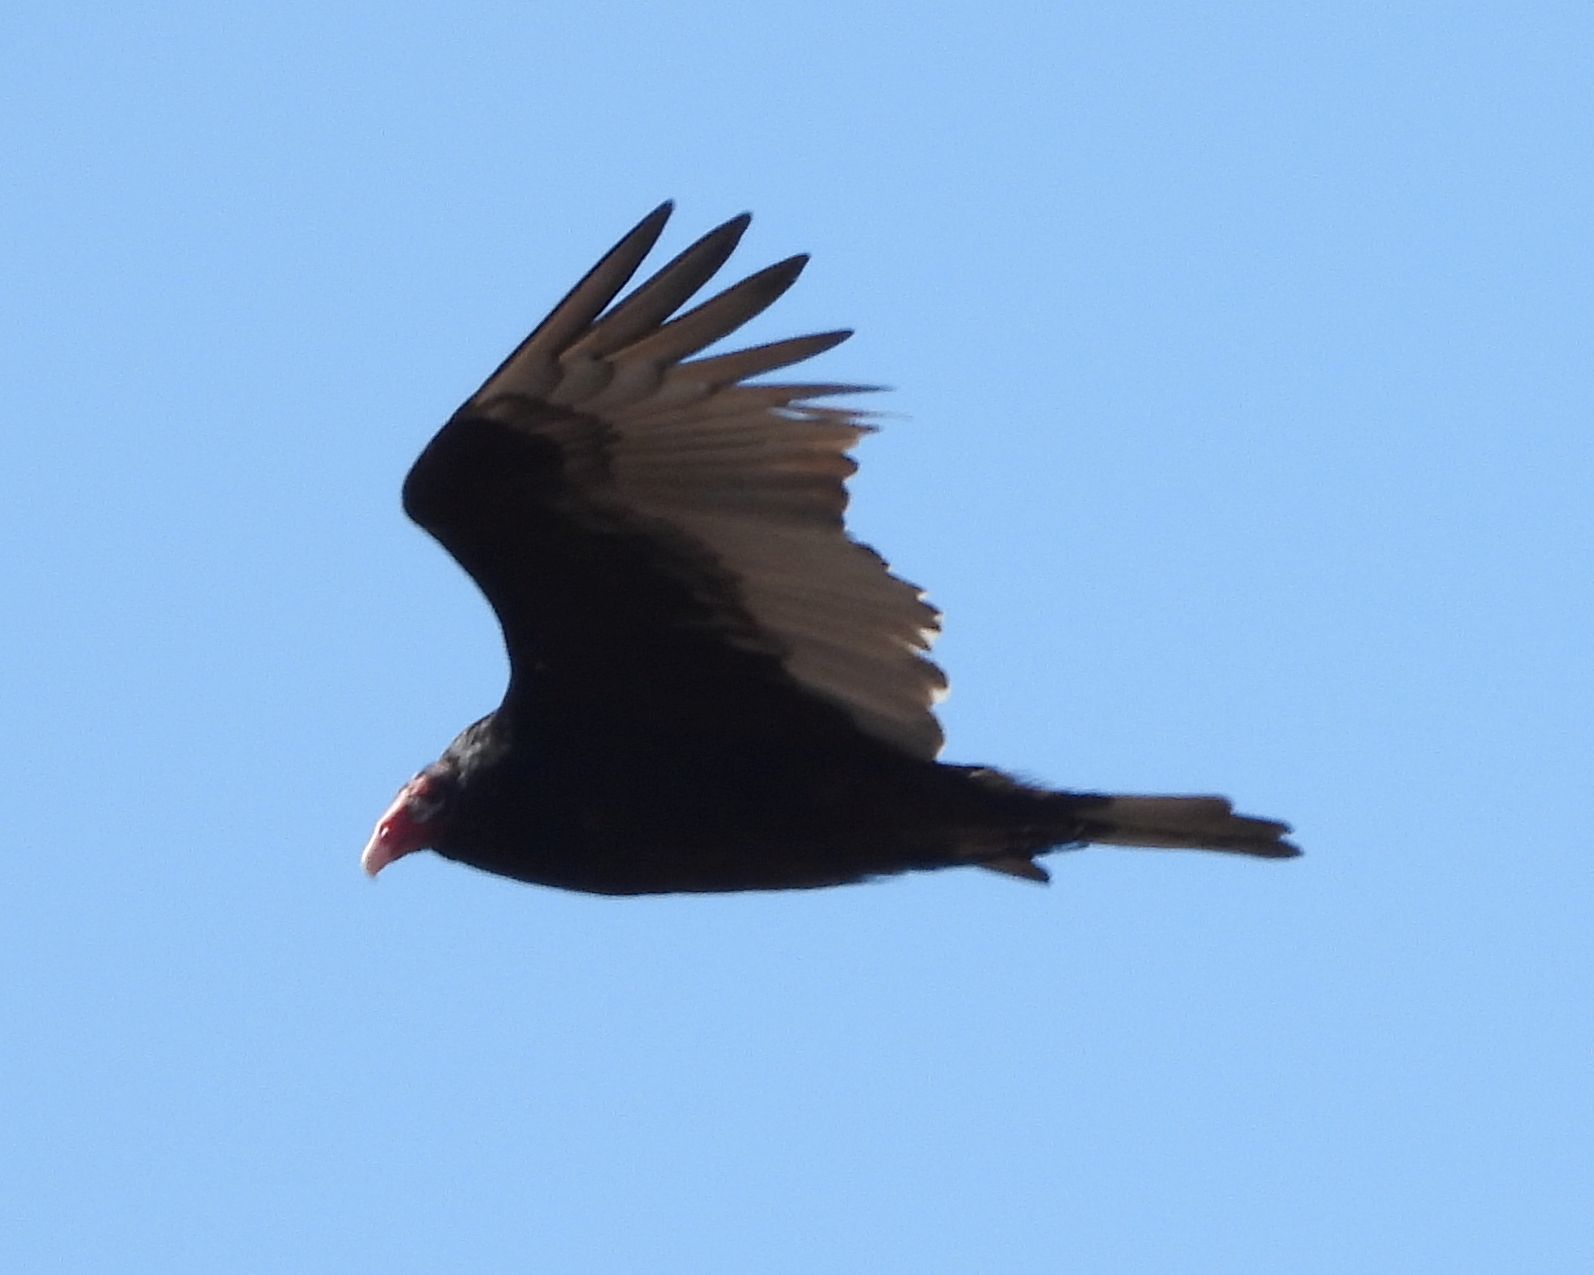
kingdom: Animalia
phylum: Chordata
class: Aves
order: Accipitriformes
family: Cathartidae
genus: Cathartes
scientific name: Cathartes aura
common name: Turkey vulture
